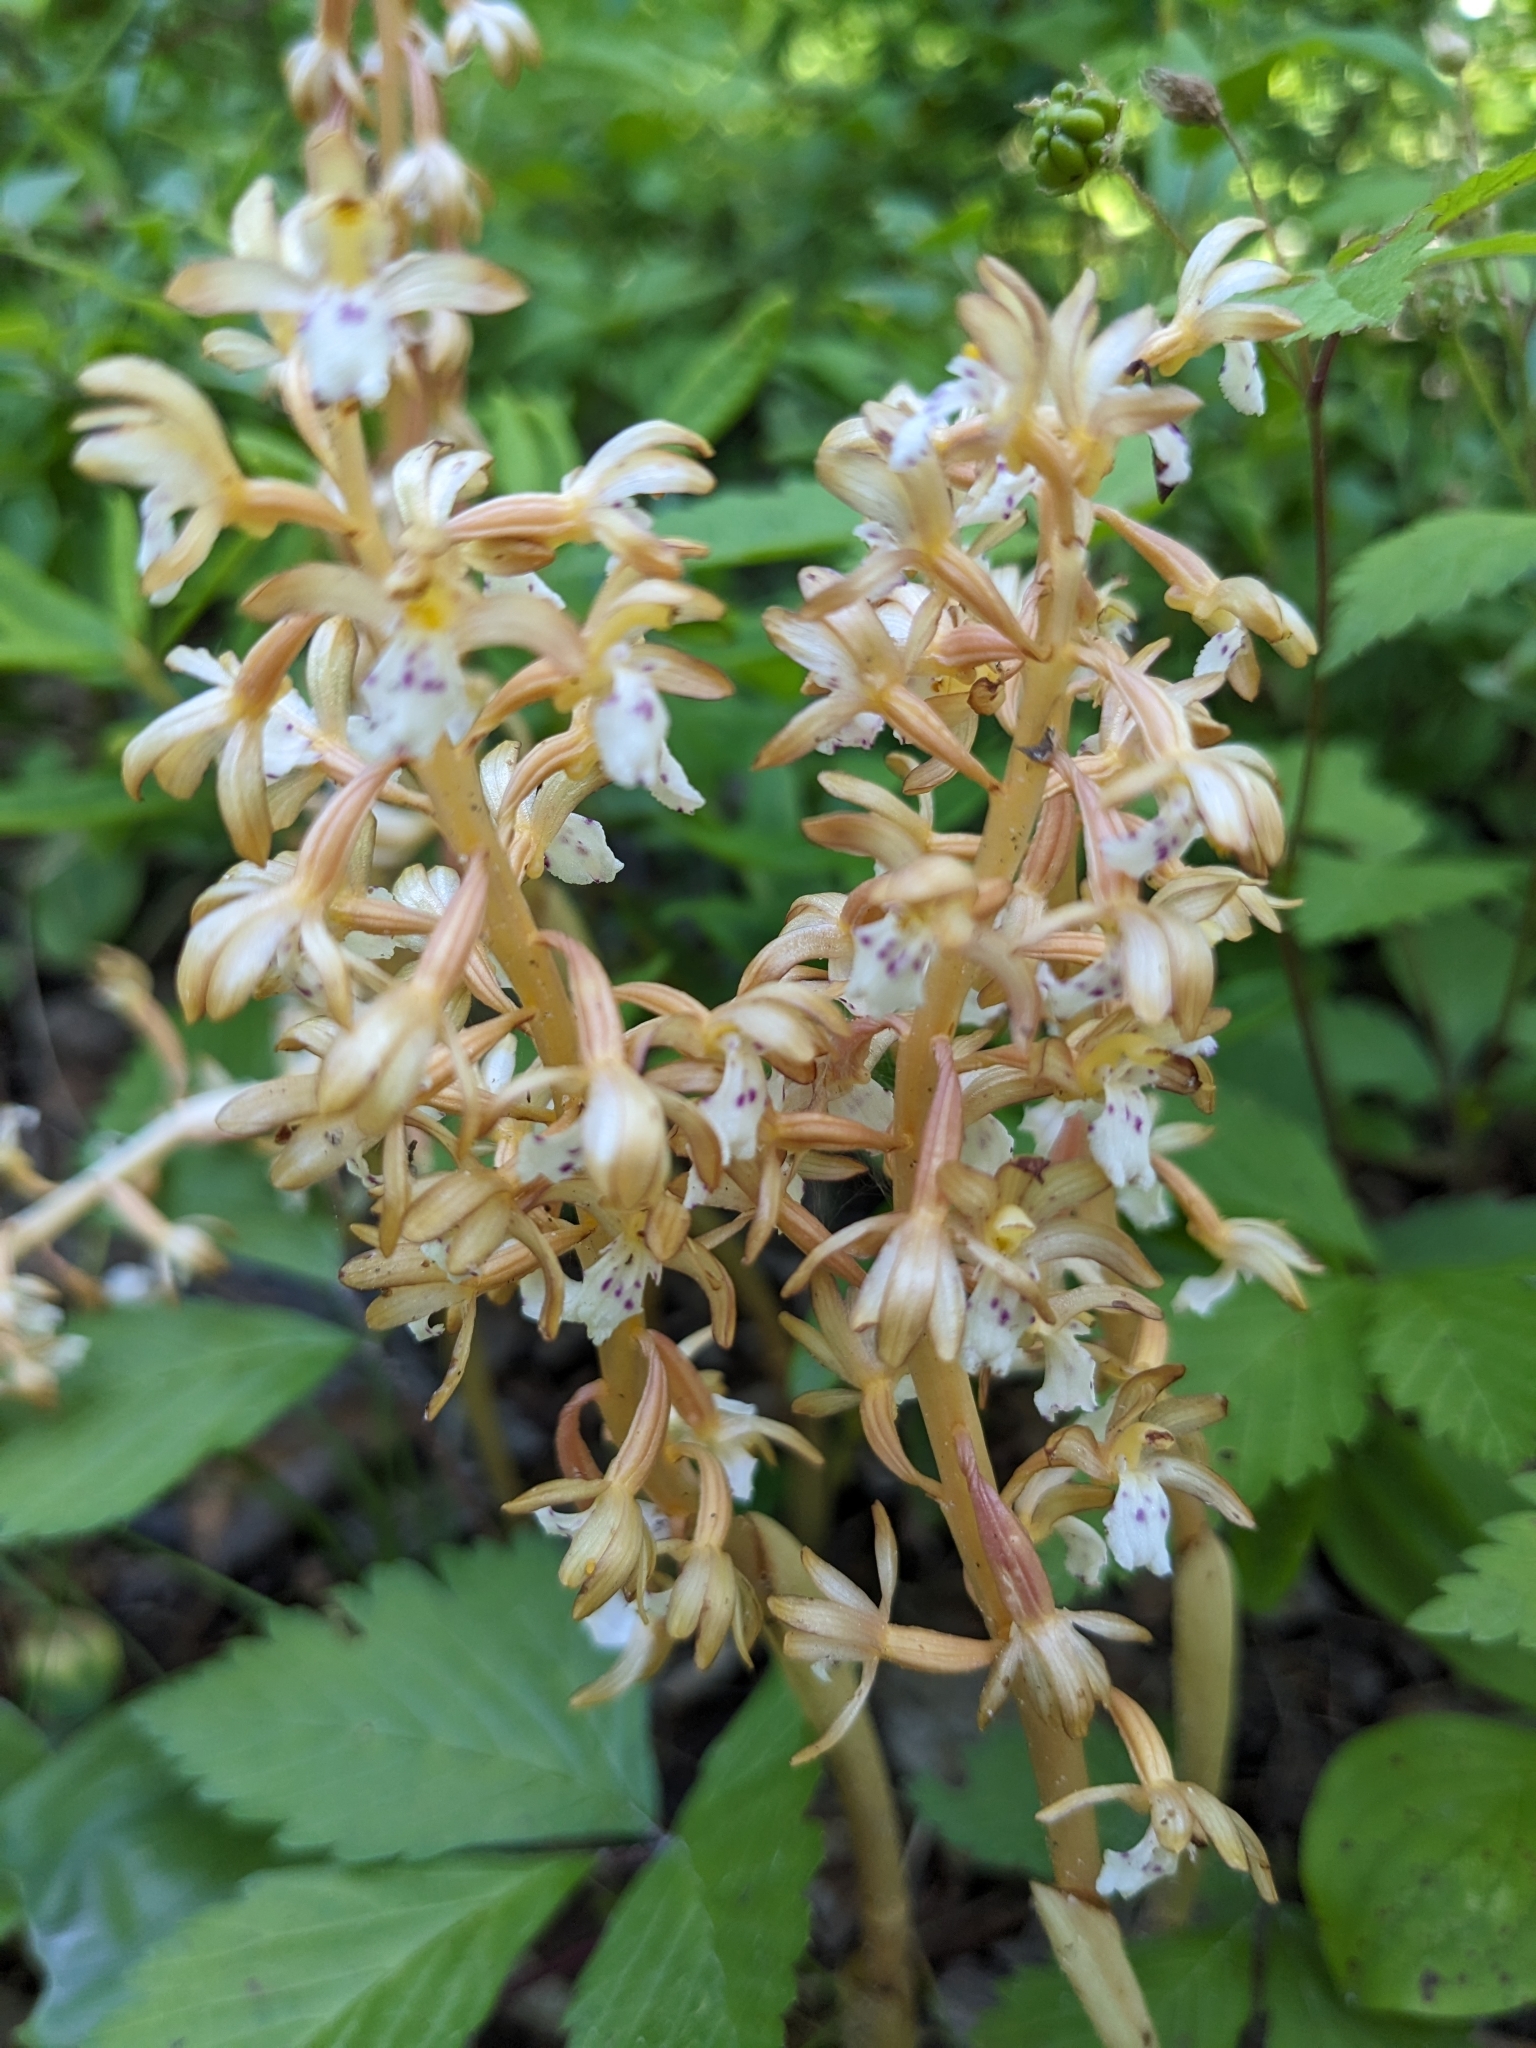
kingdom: Plantae
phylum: Tracheophyta
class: Liliopsida
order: Asparagales
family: Orchidaceae
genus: Corallorhiza
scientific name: Corallorhiza maculata
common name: Spotted coralroot
